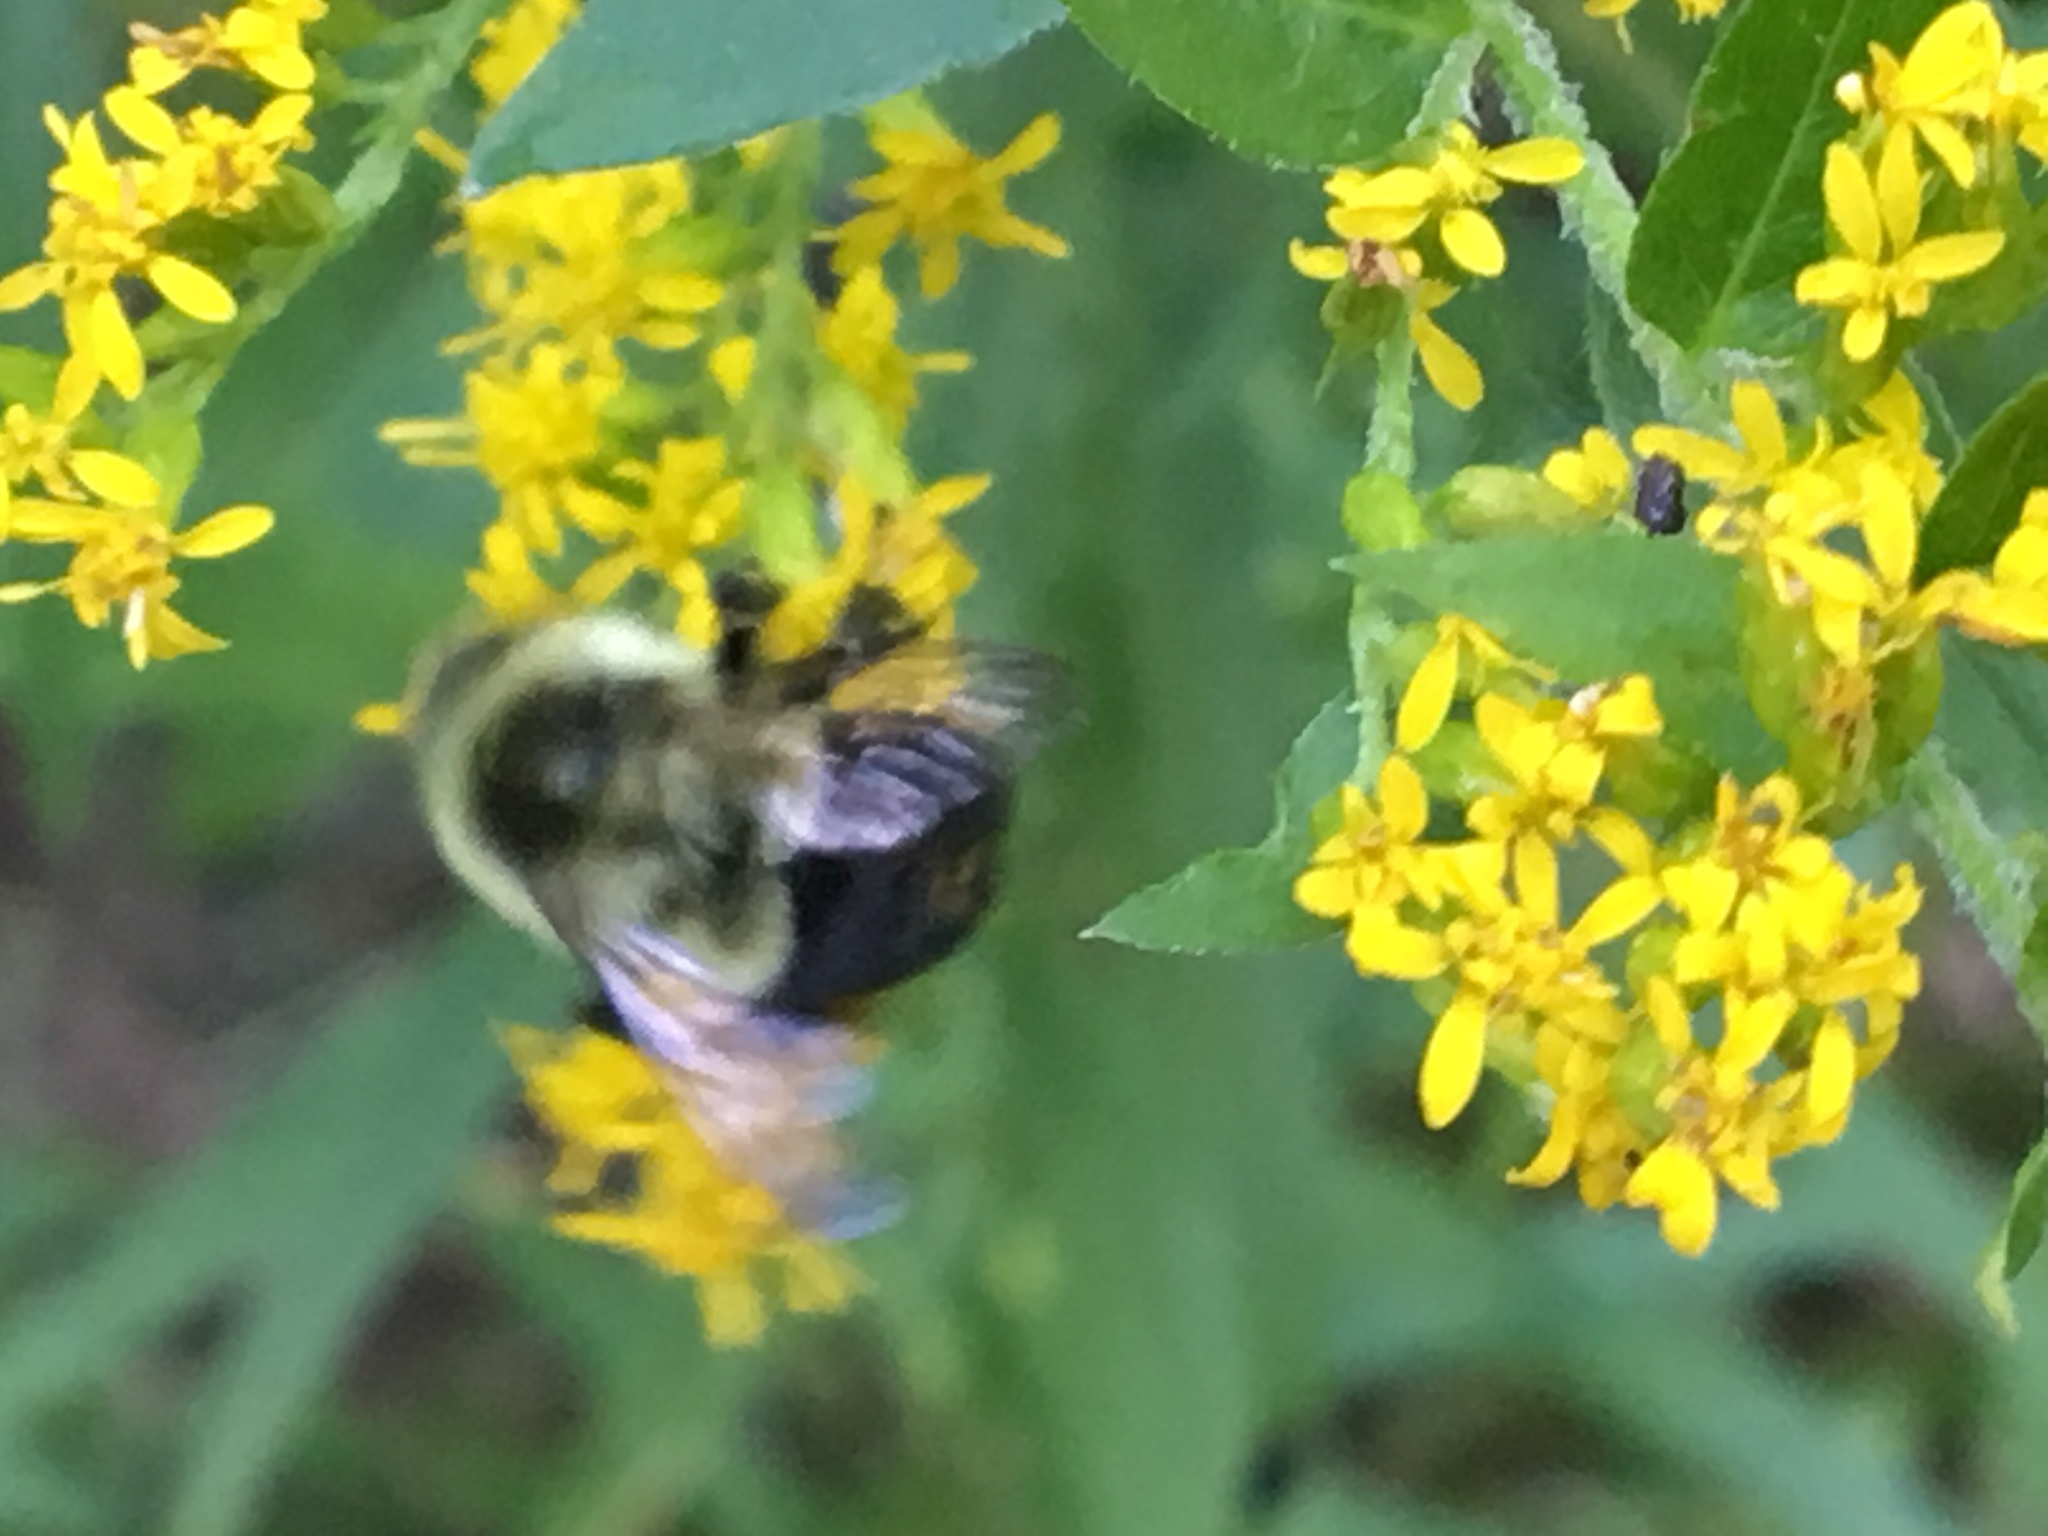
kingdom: Animalia
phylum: Arthropoda
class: Insecta
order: Hymenoptera
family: Apidae
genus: Bombus
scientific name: Bombus impatiens
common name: Common eastern bumble bee
